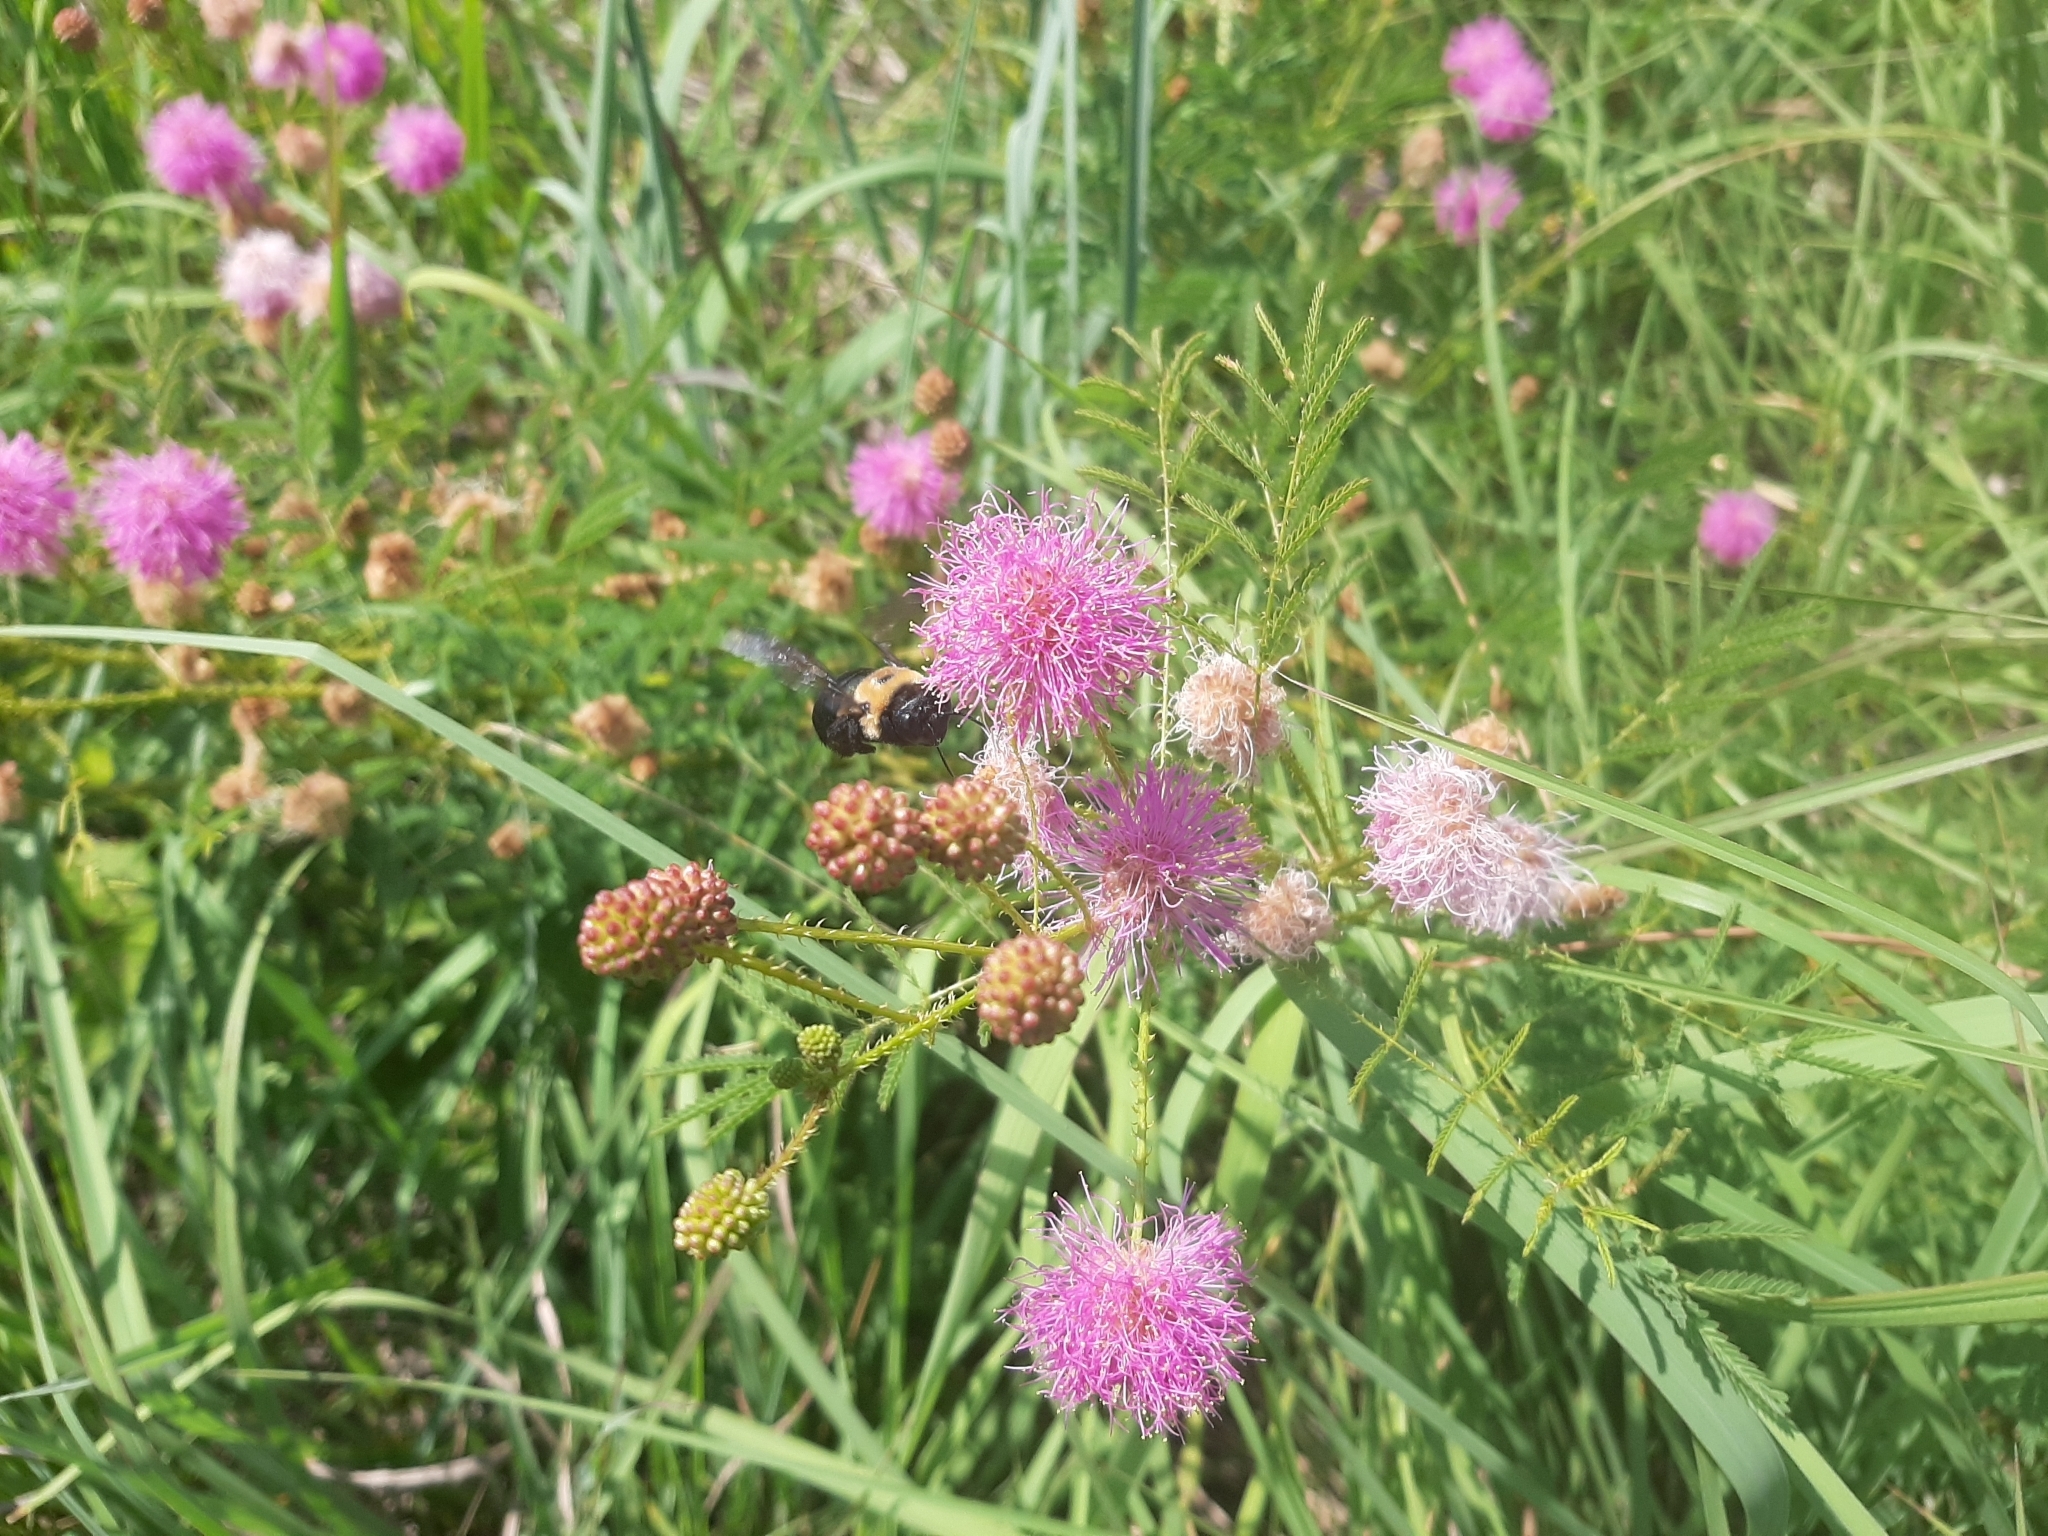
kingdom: Plantae
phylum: Tracheophyta
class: Magnoliopsida
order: Fabales
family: Fabaceae
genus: Mimosa
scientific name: Mimosa quadrivalvis
